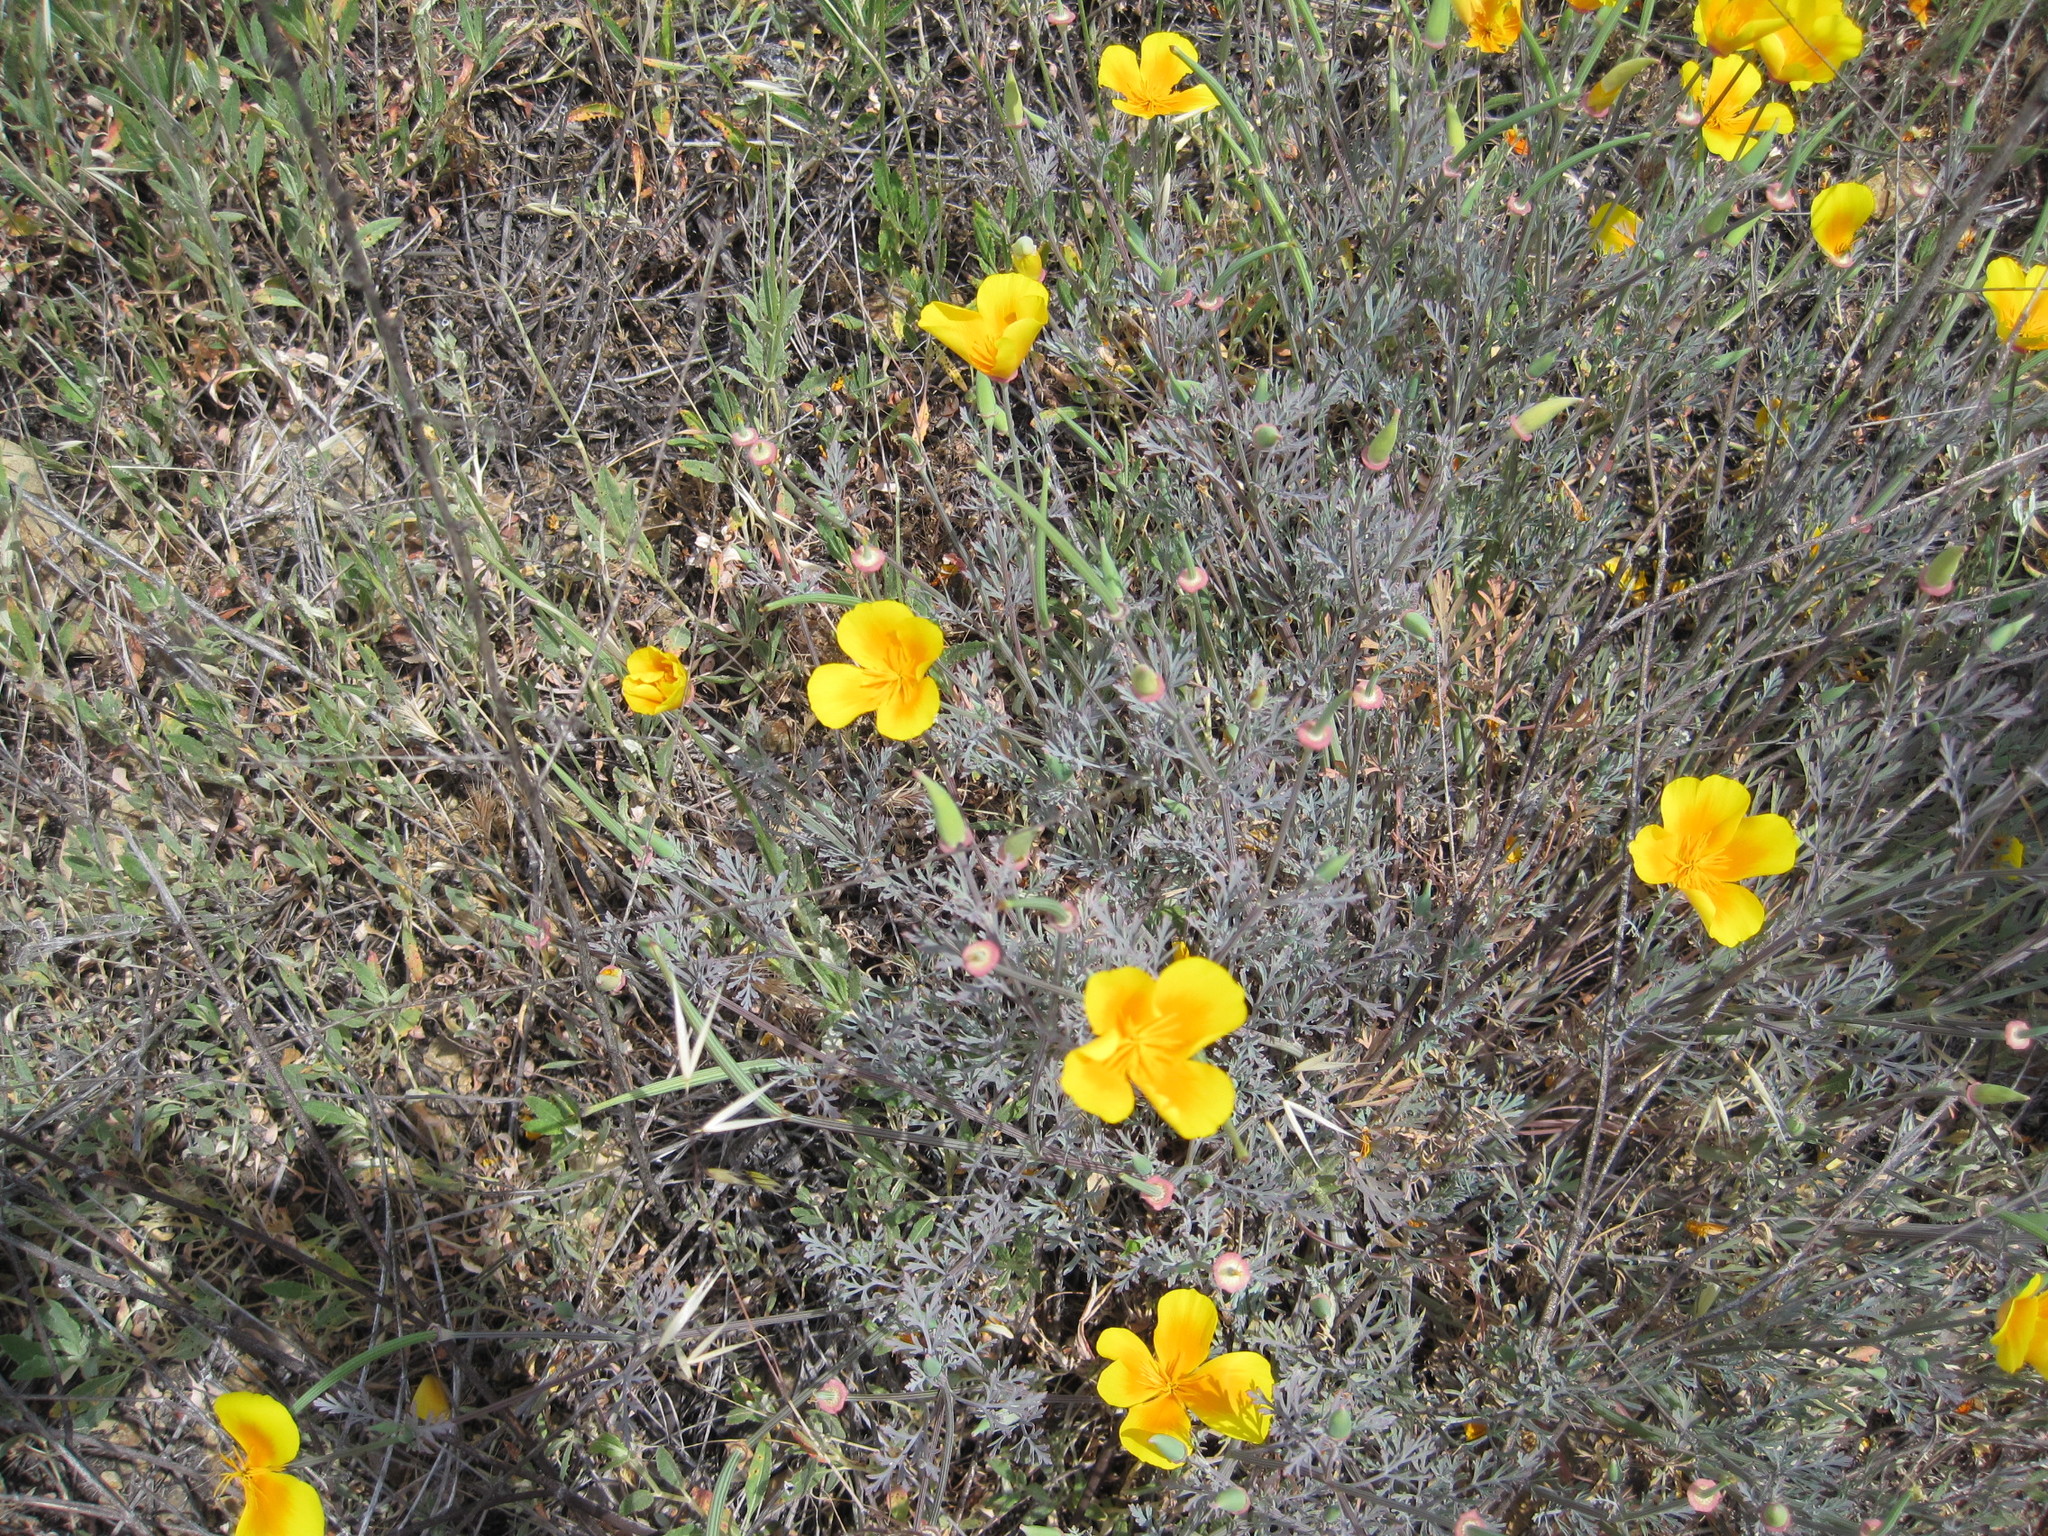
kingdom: Plantae
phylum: Tracheophyta
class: Magnoliopsida
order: Ranunculales
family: Papaveraceae
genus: Eschscholzia
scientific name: Eschscholzia californica
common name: California poppy
